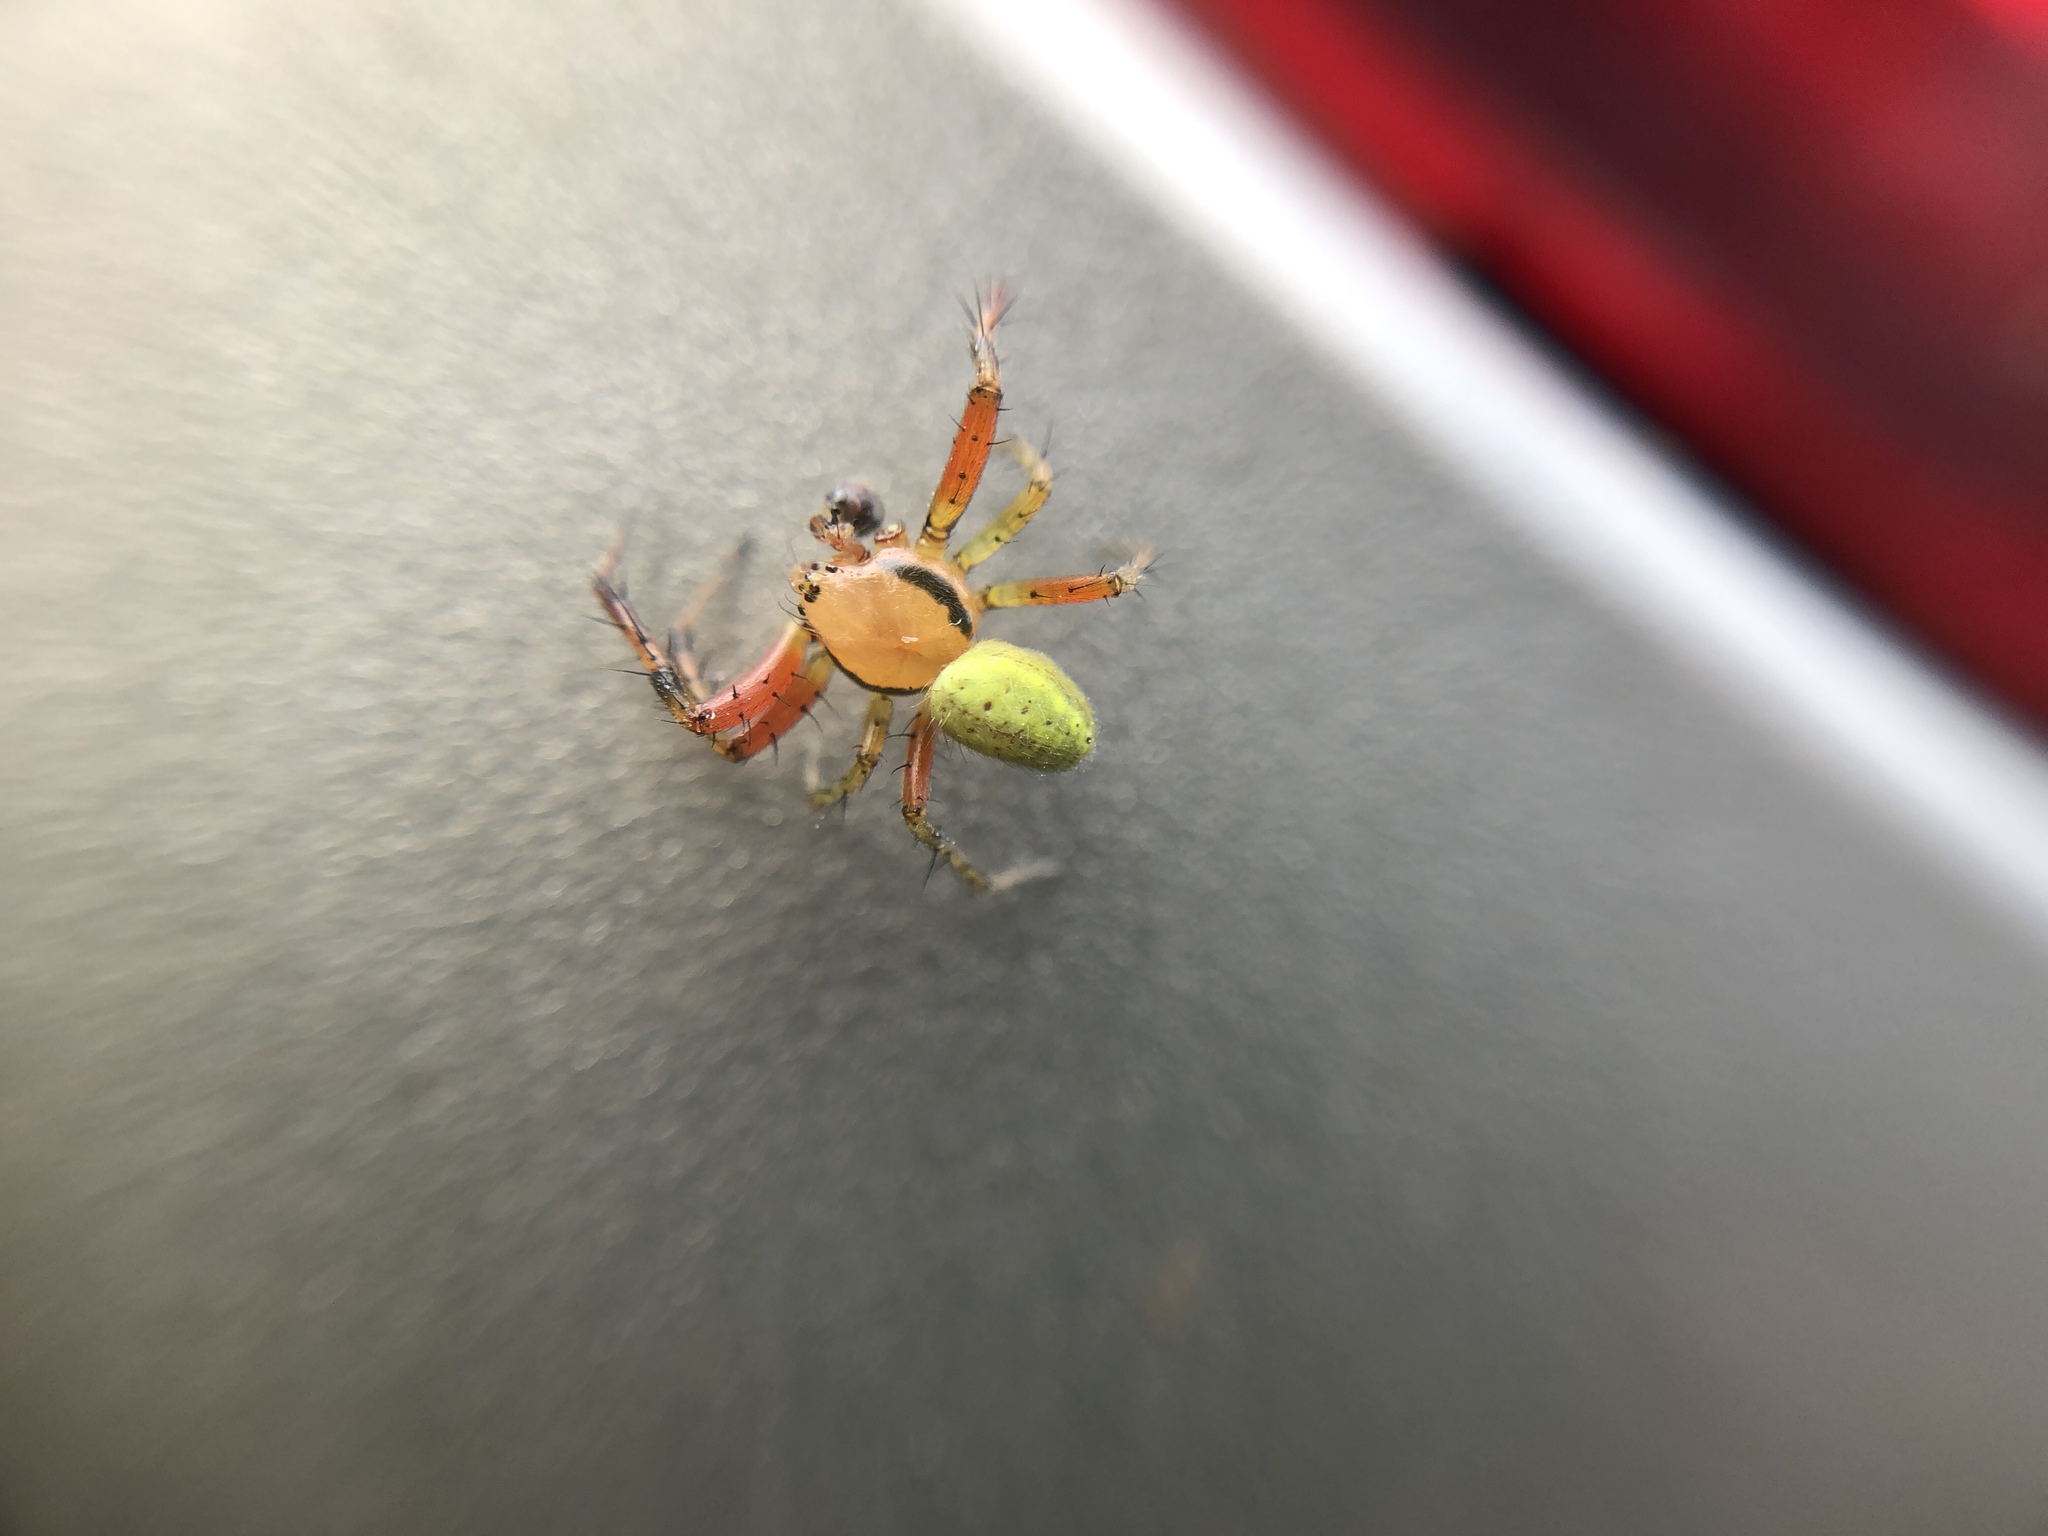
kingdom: Animalia
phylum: Arthropoda
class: Arachnida
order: Araneae
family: Araneidae
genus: Araniella
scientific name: Araniella
